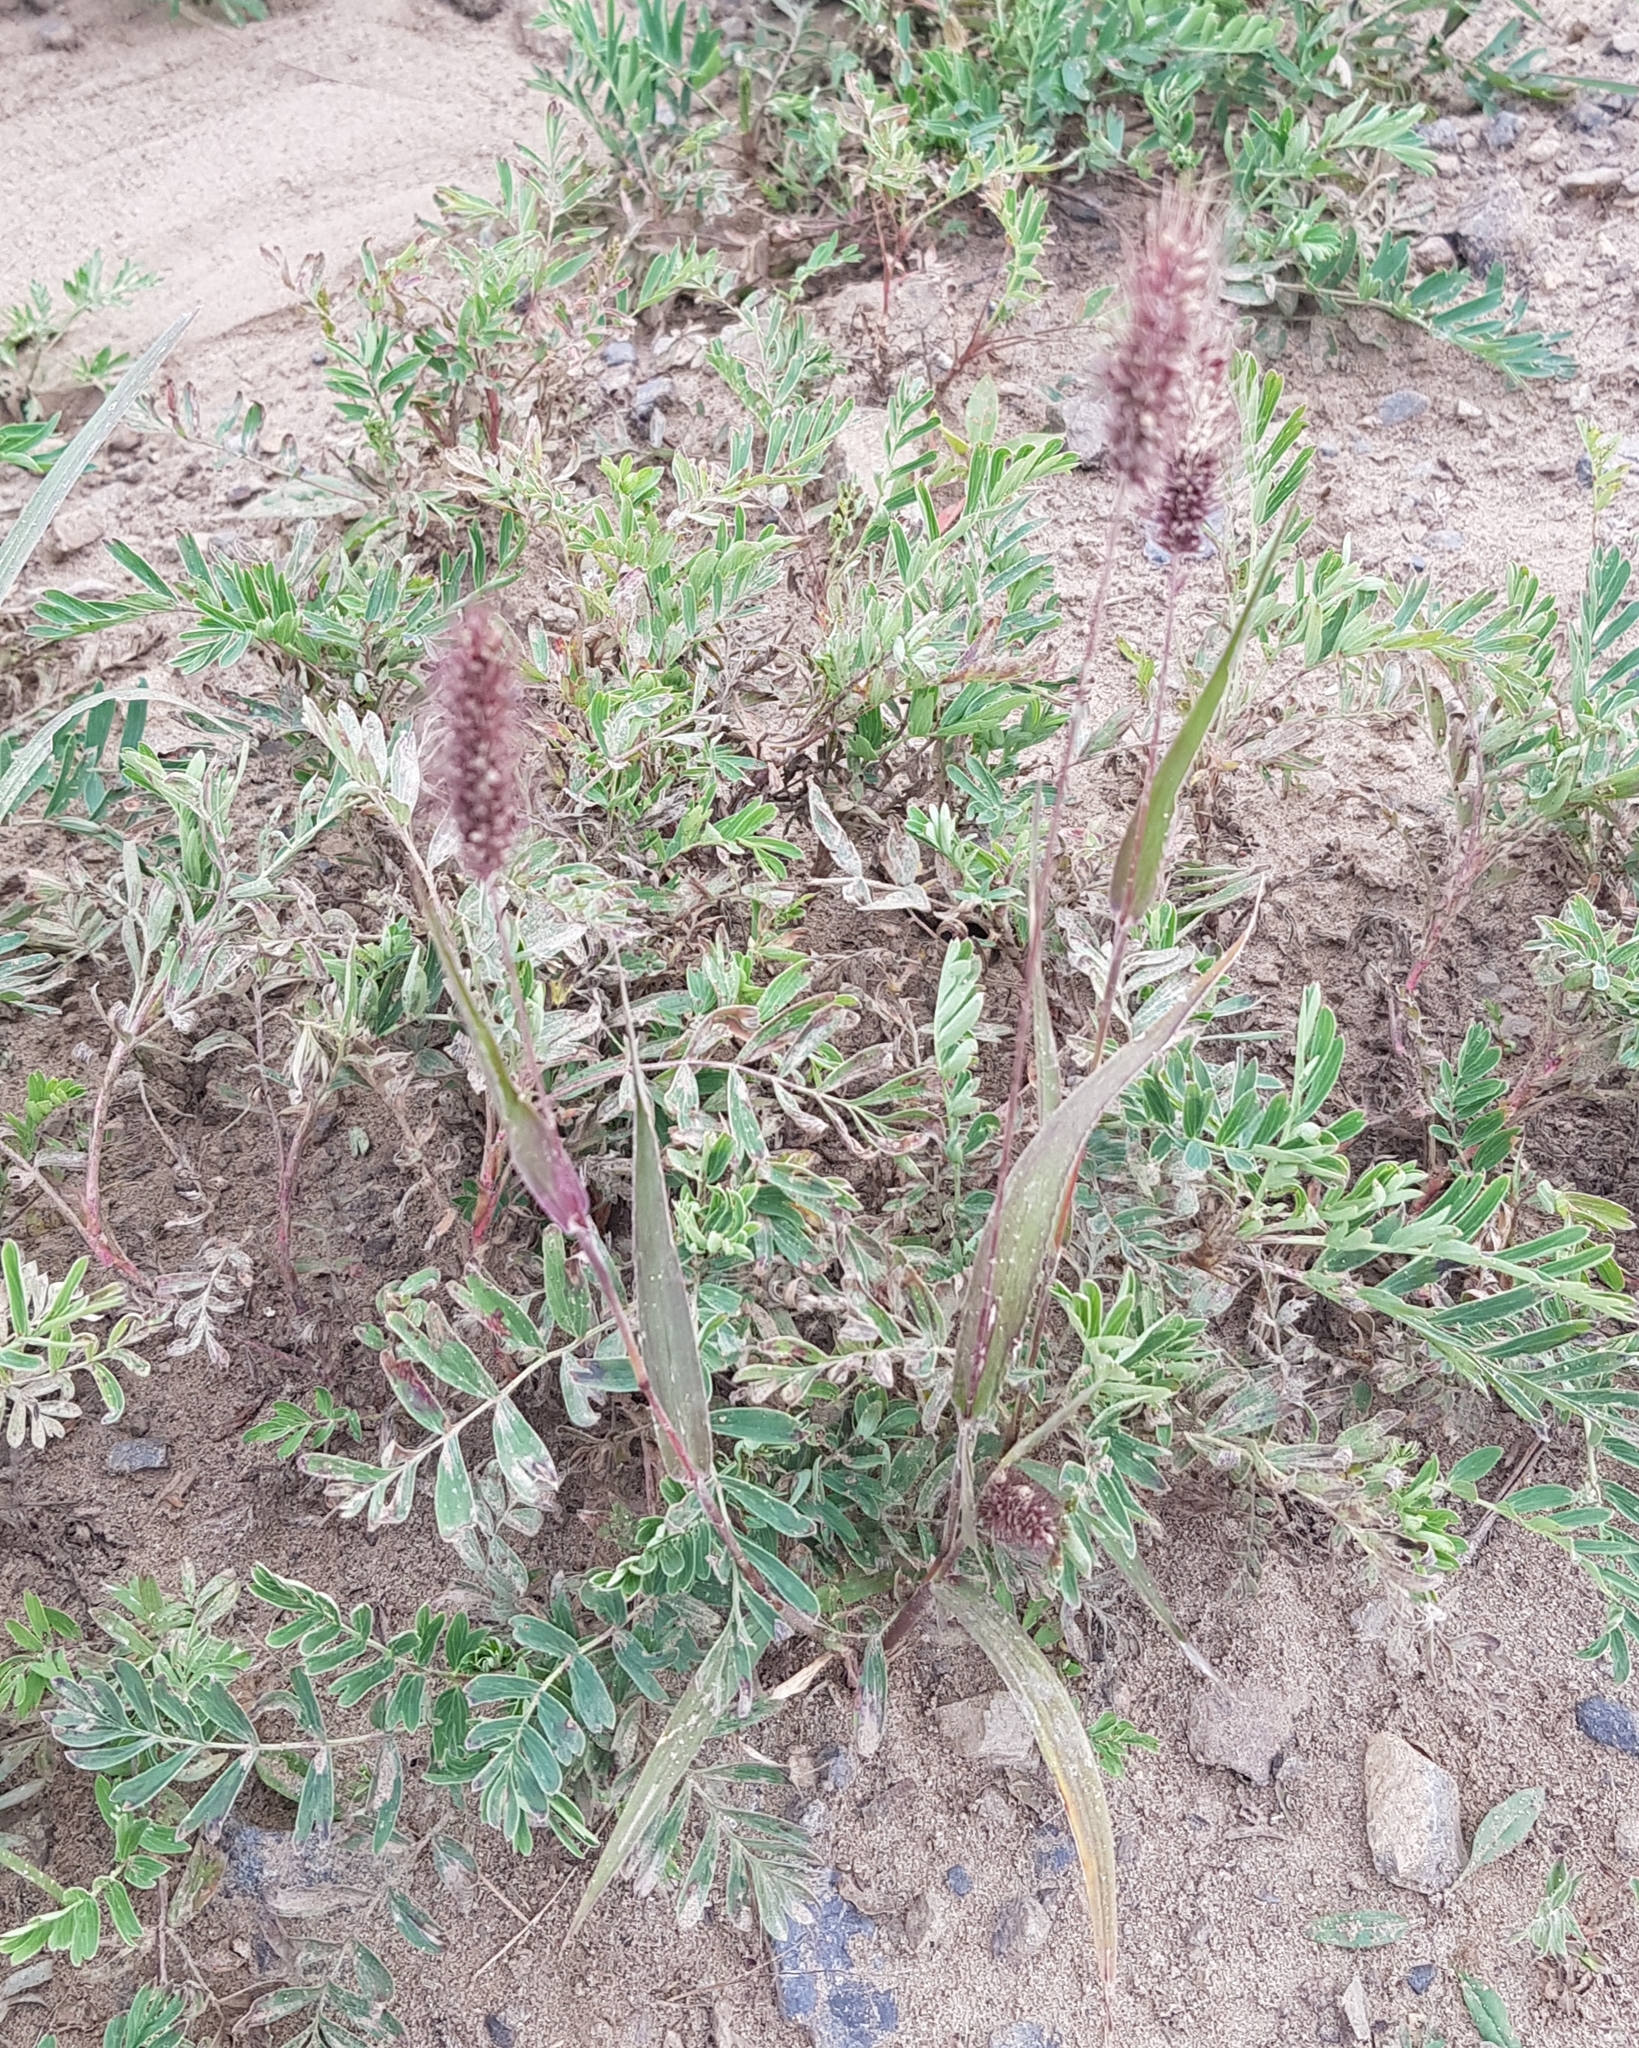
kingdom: Plantae
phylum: Tracheophyta
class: Liliopsida
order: Poales
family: Poaceae
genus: Setaria
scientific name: Setaria viridis
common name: Green bristlegrass
